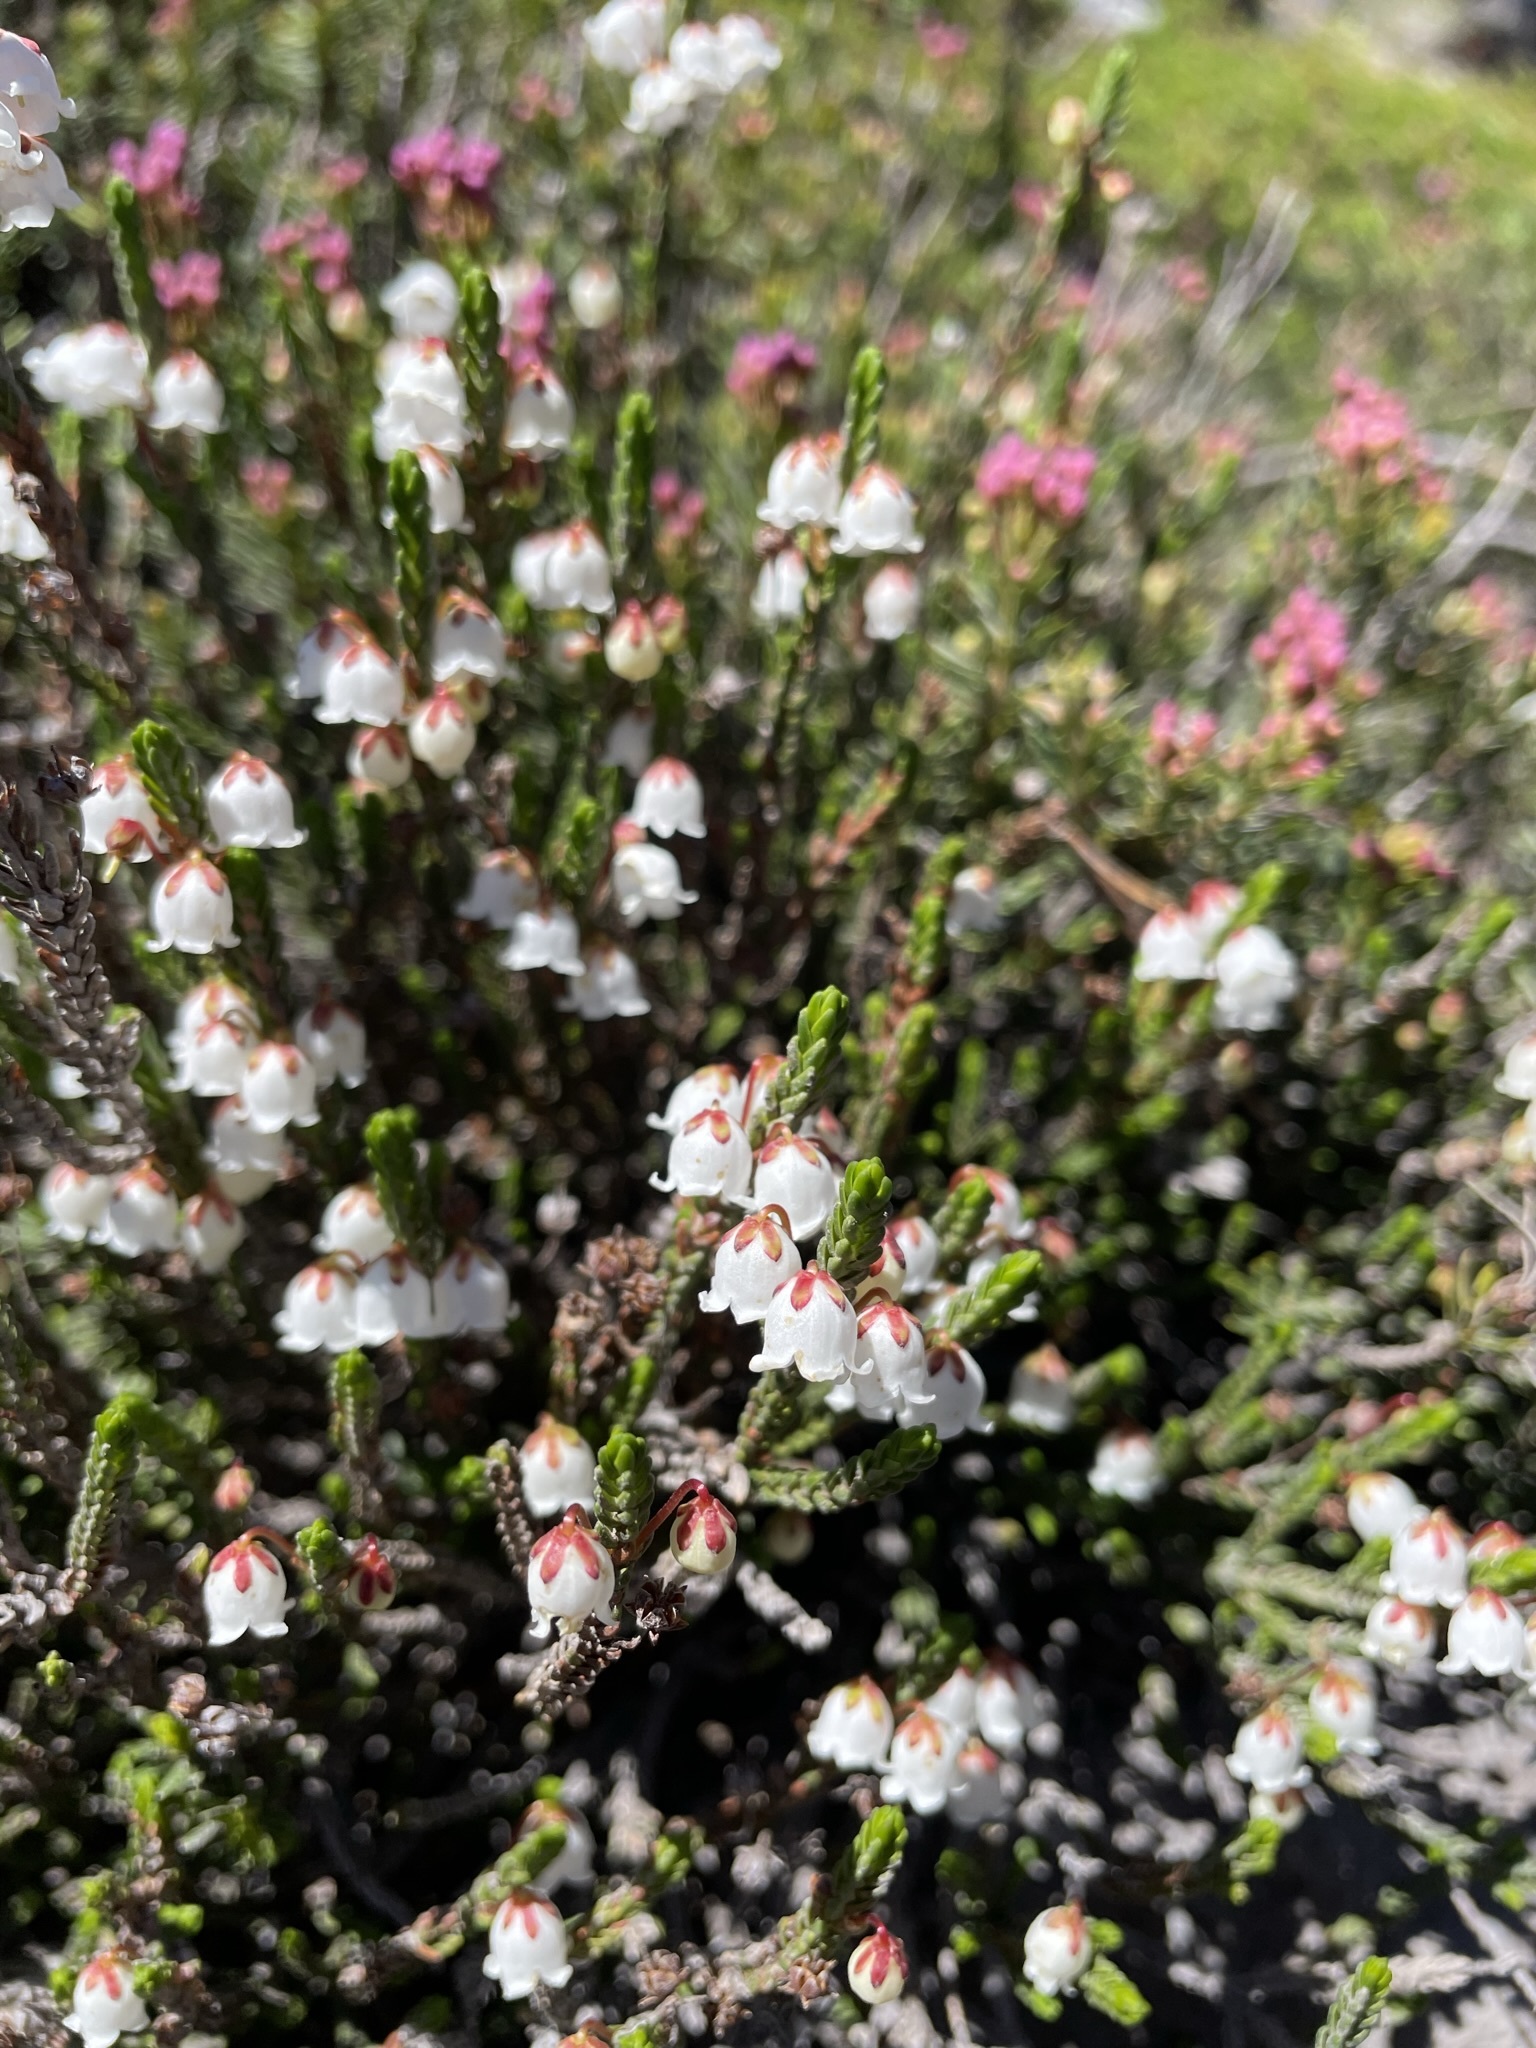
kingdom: Plantae
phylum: Tracheophyta
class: Magnoliopsida
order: Ericales
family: Ericaceae
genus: Cassiope
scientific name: Cassiope mertensiana
